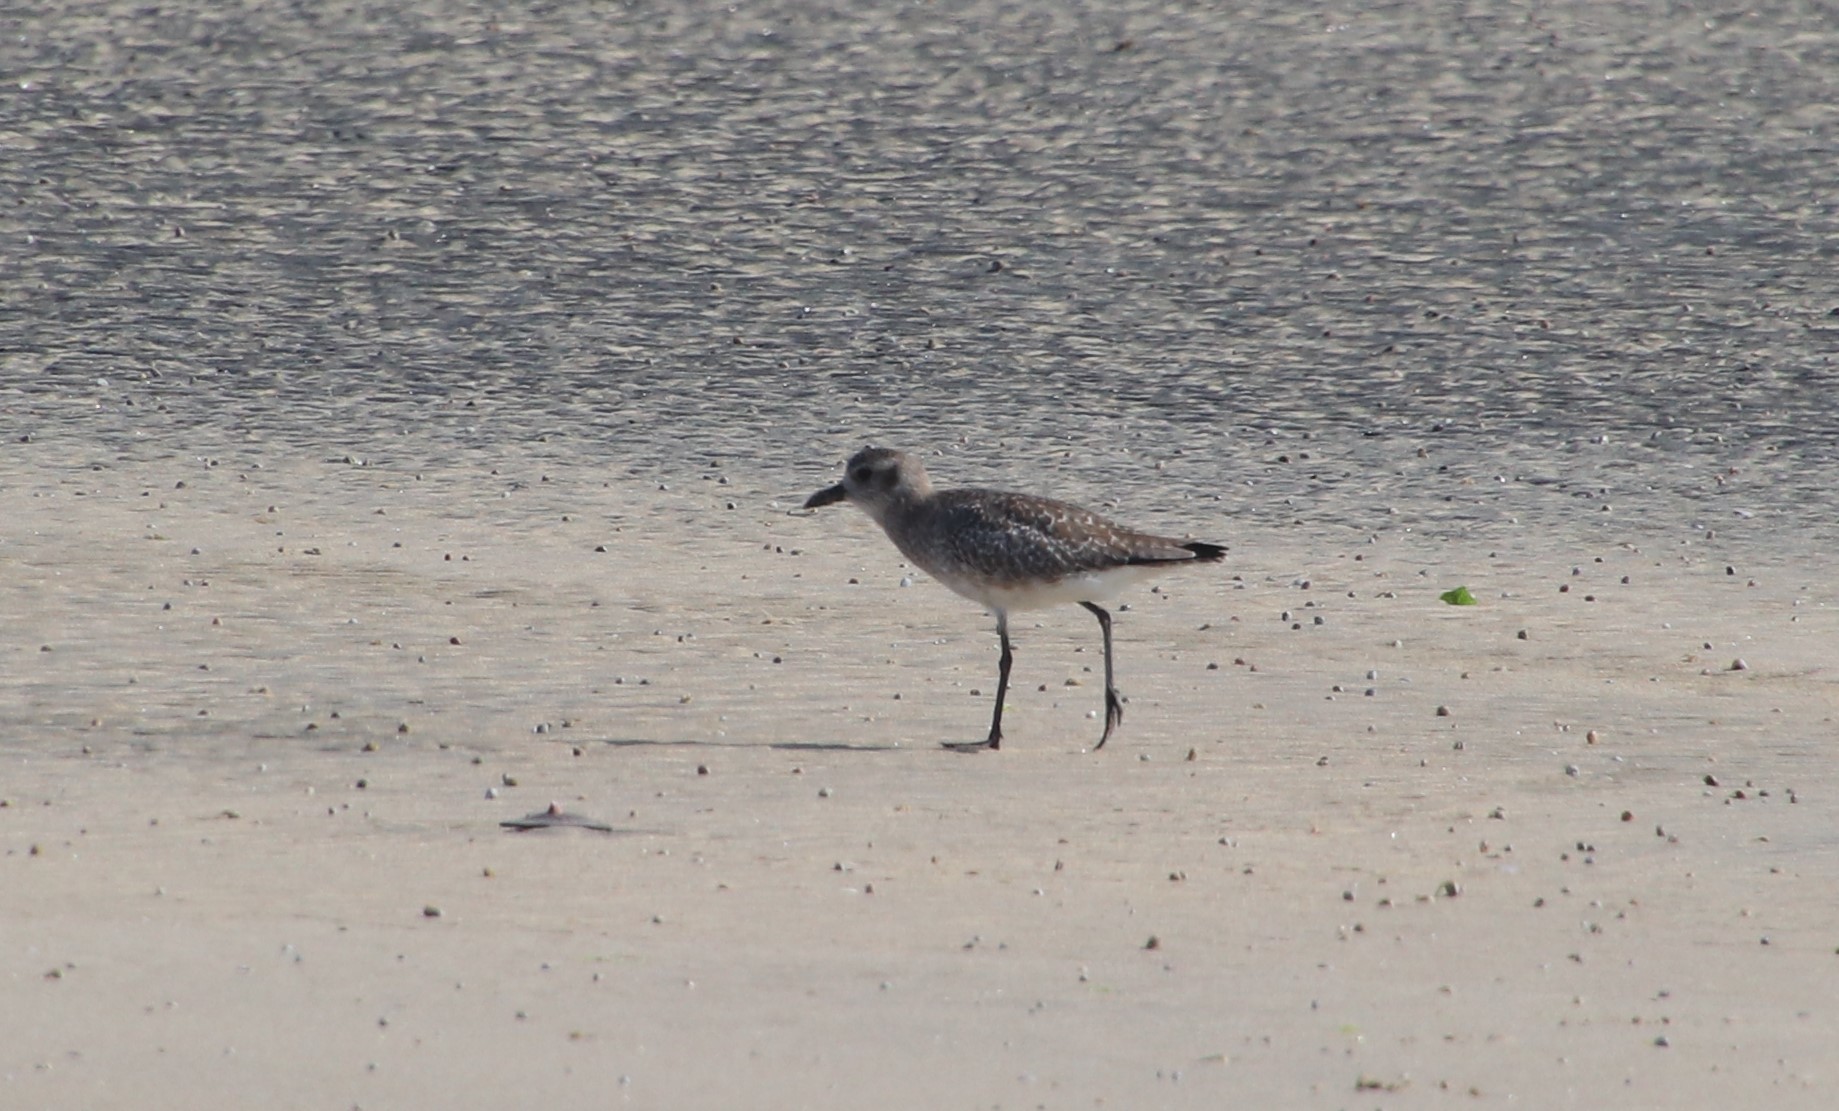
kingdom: Animalia
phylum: Chordata
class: Aves
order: Charadriiformes
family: Charadriidae
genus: Pluvialis
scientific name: Pluvialis squatarola
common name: Grey plover
